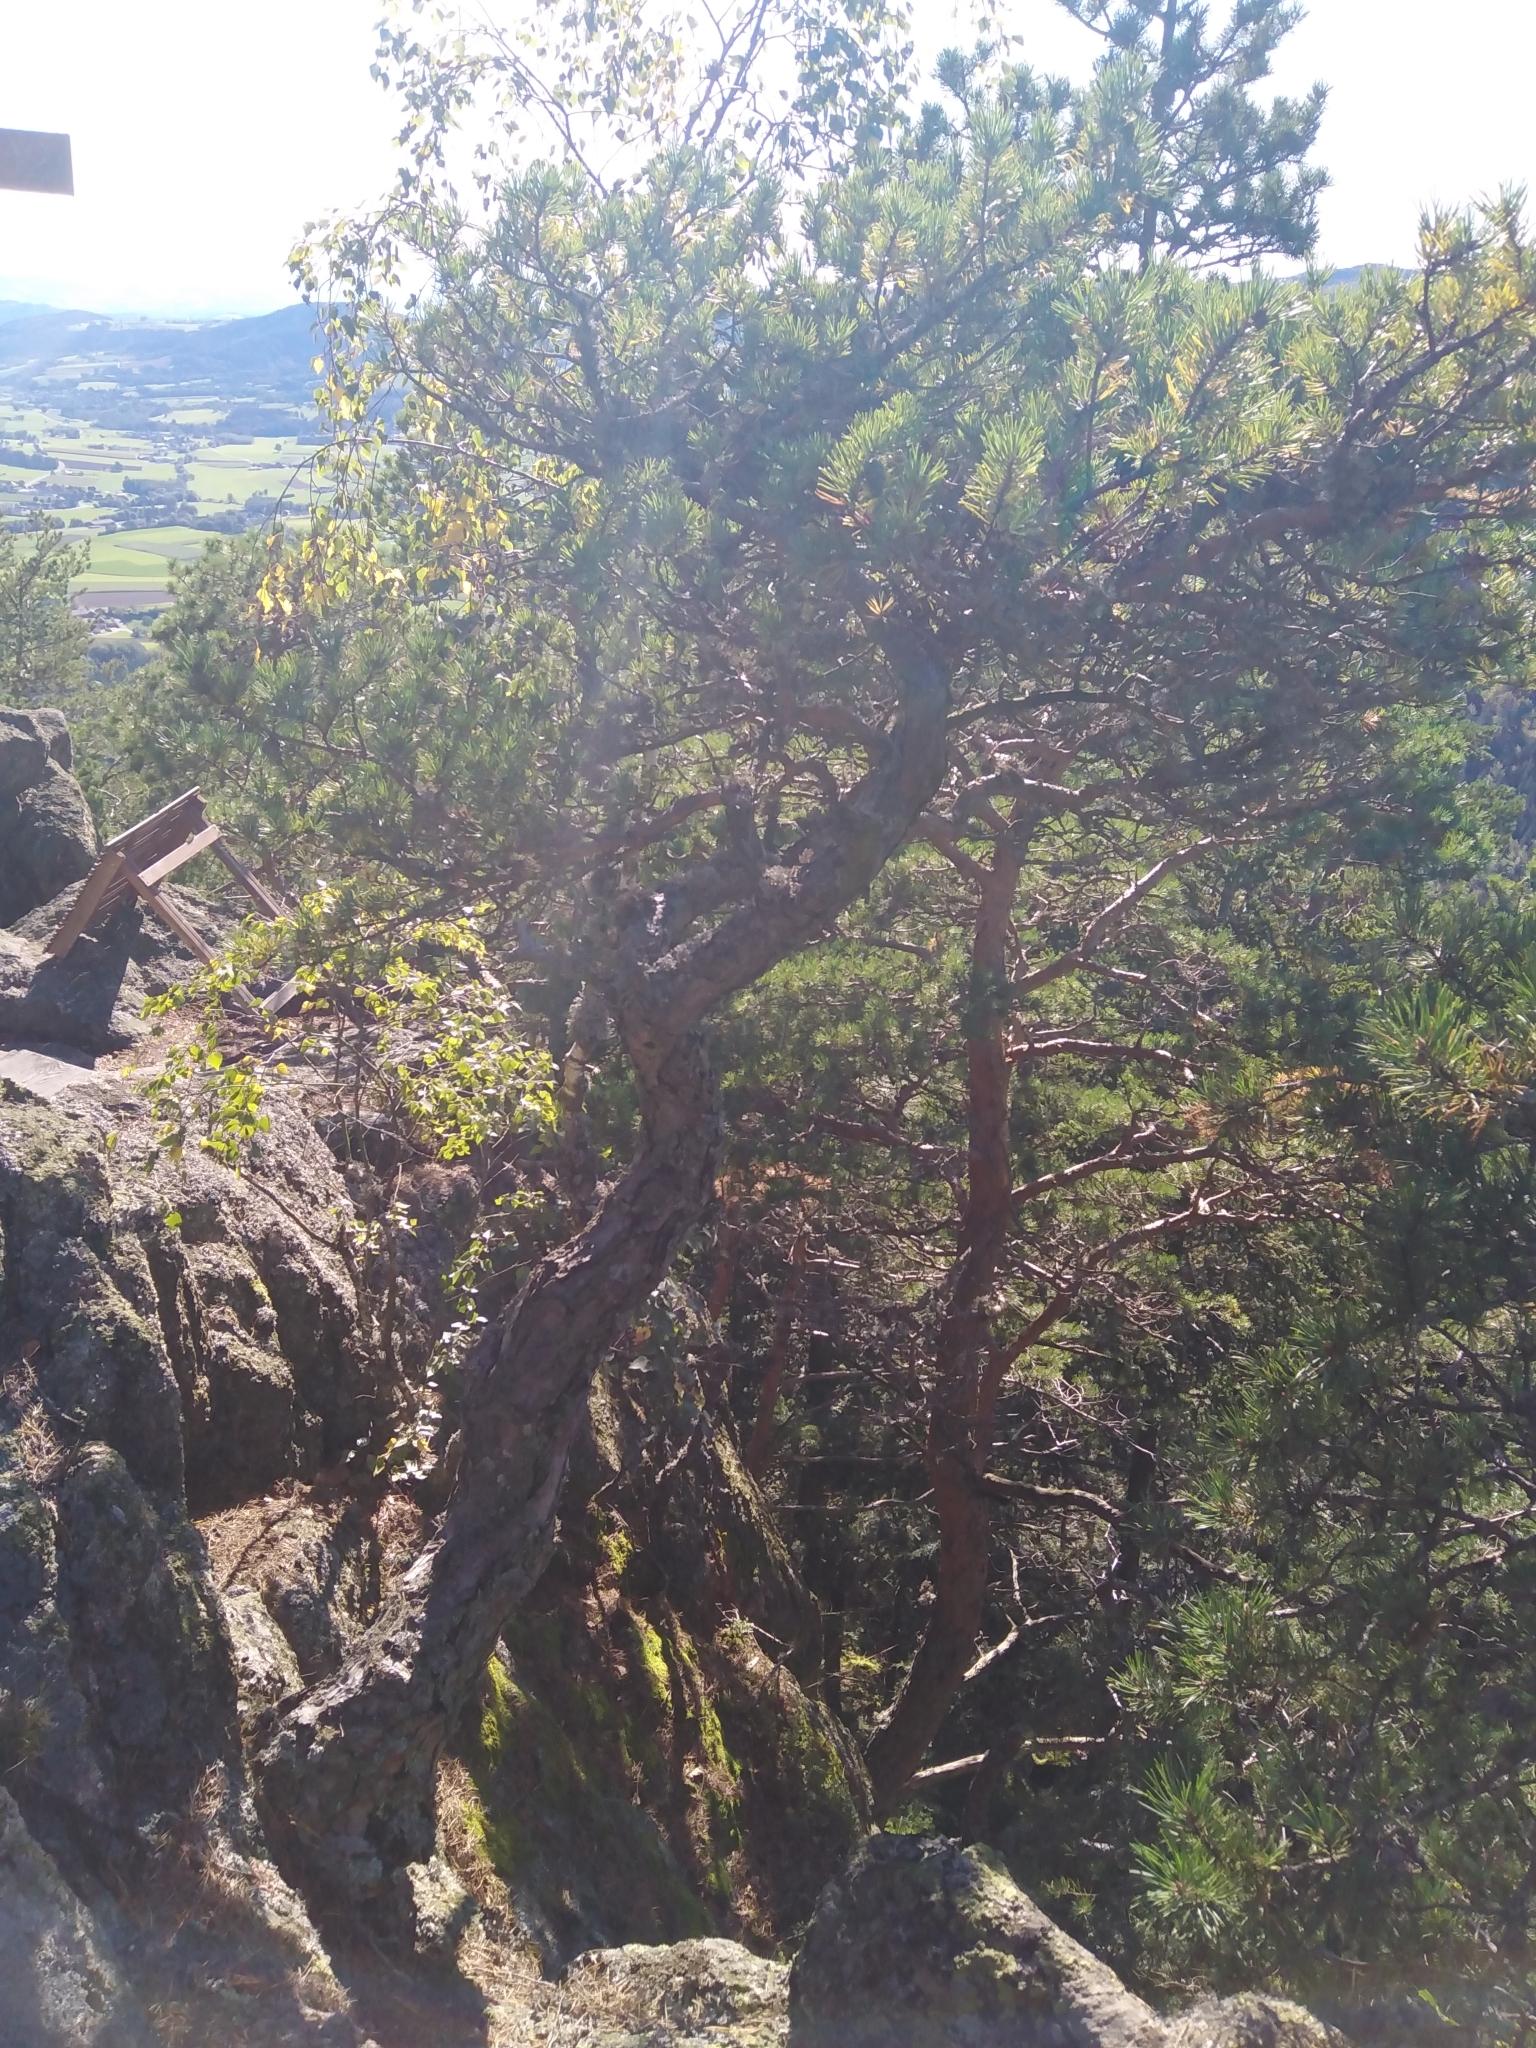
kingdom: Plantae
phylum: Tracheophyta
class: Pinopsida
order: Pinales
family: Pinaceae
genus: Pinus
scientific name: Pinus sylvestris
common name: Scots pine
